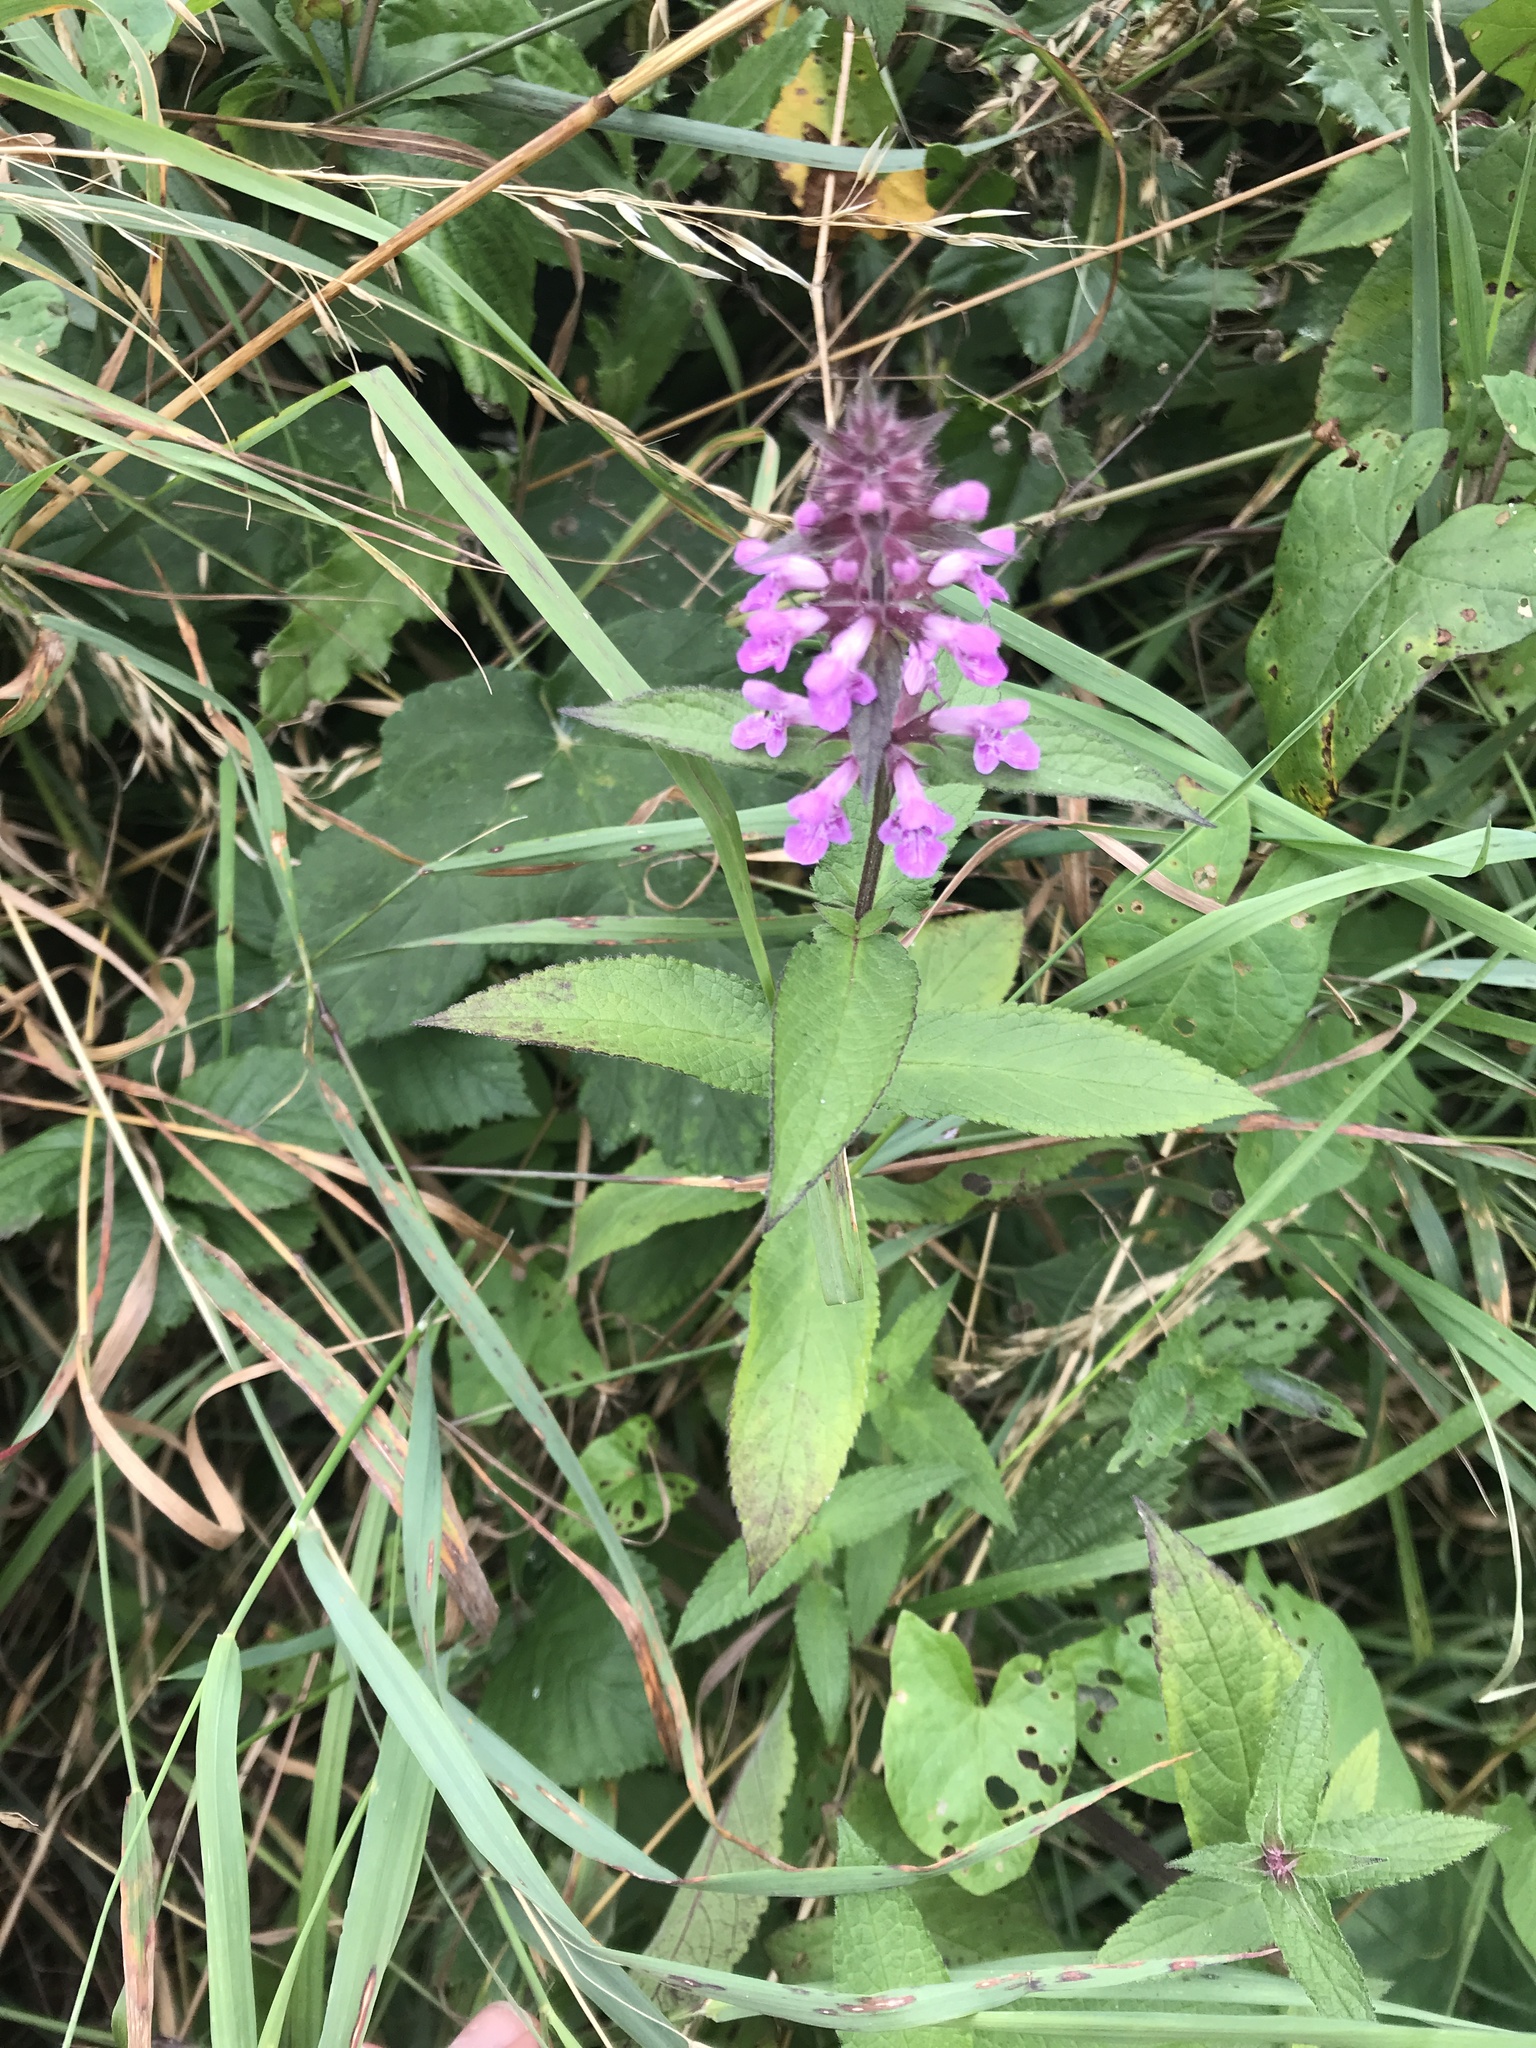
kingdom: Plantae
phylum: Tracheophyta
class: Magnoliopsida
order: Lamiales
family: Lamiaceae
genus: Stachys
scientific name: Stachys palustris
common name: Marsh woundwort
